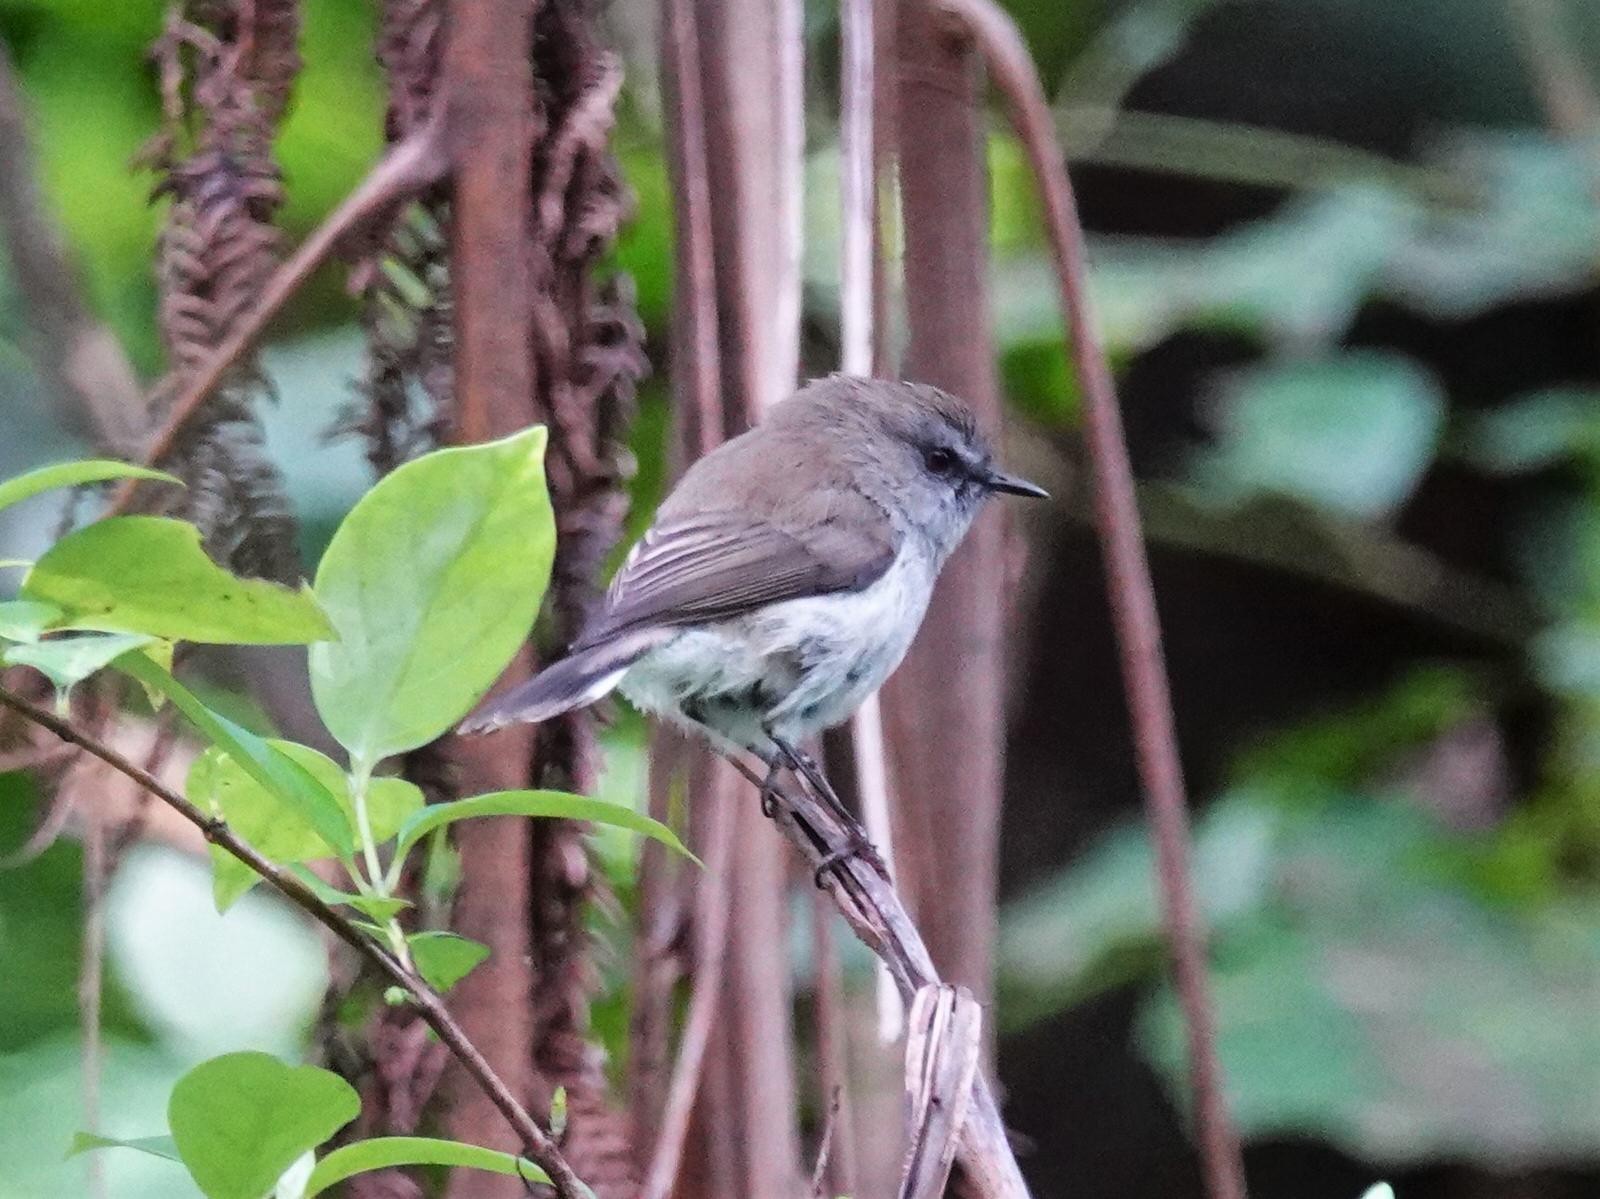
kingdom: Animalia
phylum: Chordata
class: Aves
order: Passeriformes
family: Acanthizidae
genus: Gerygone
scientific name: Gerygone igata
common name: Grey gerygone
